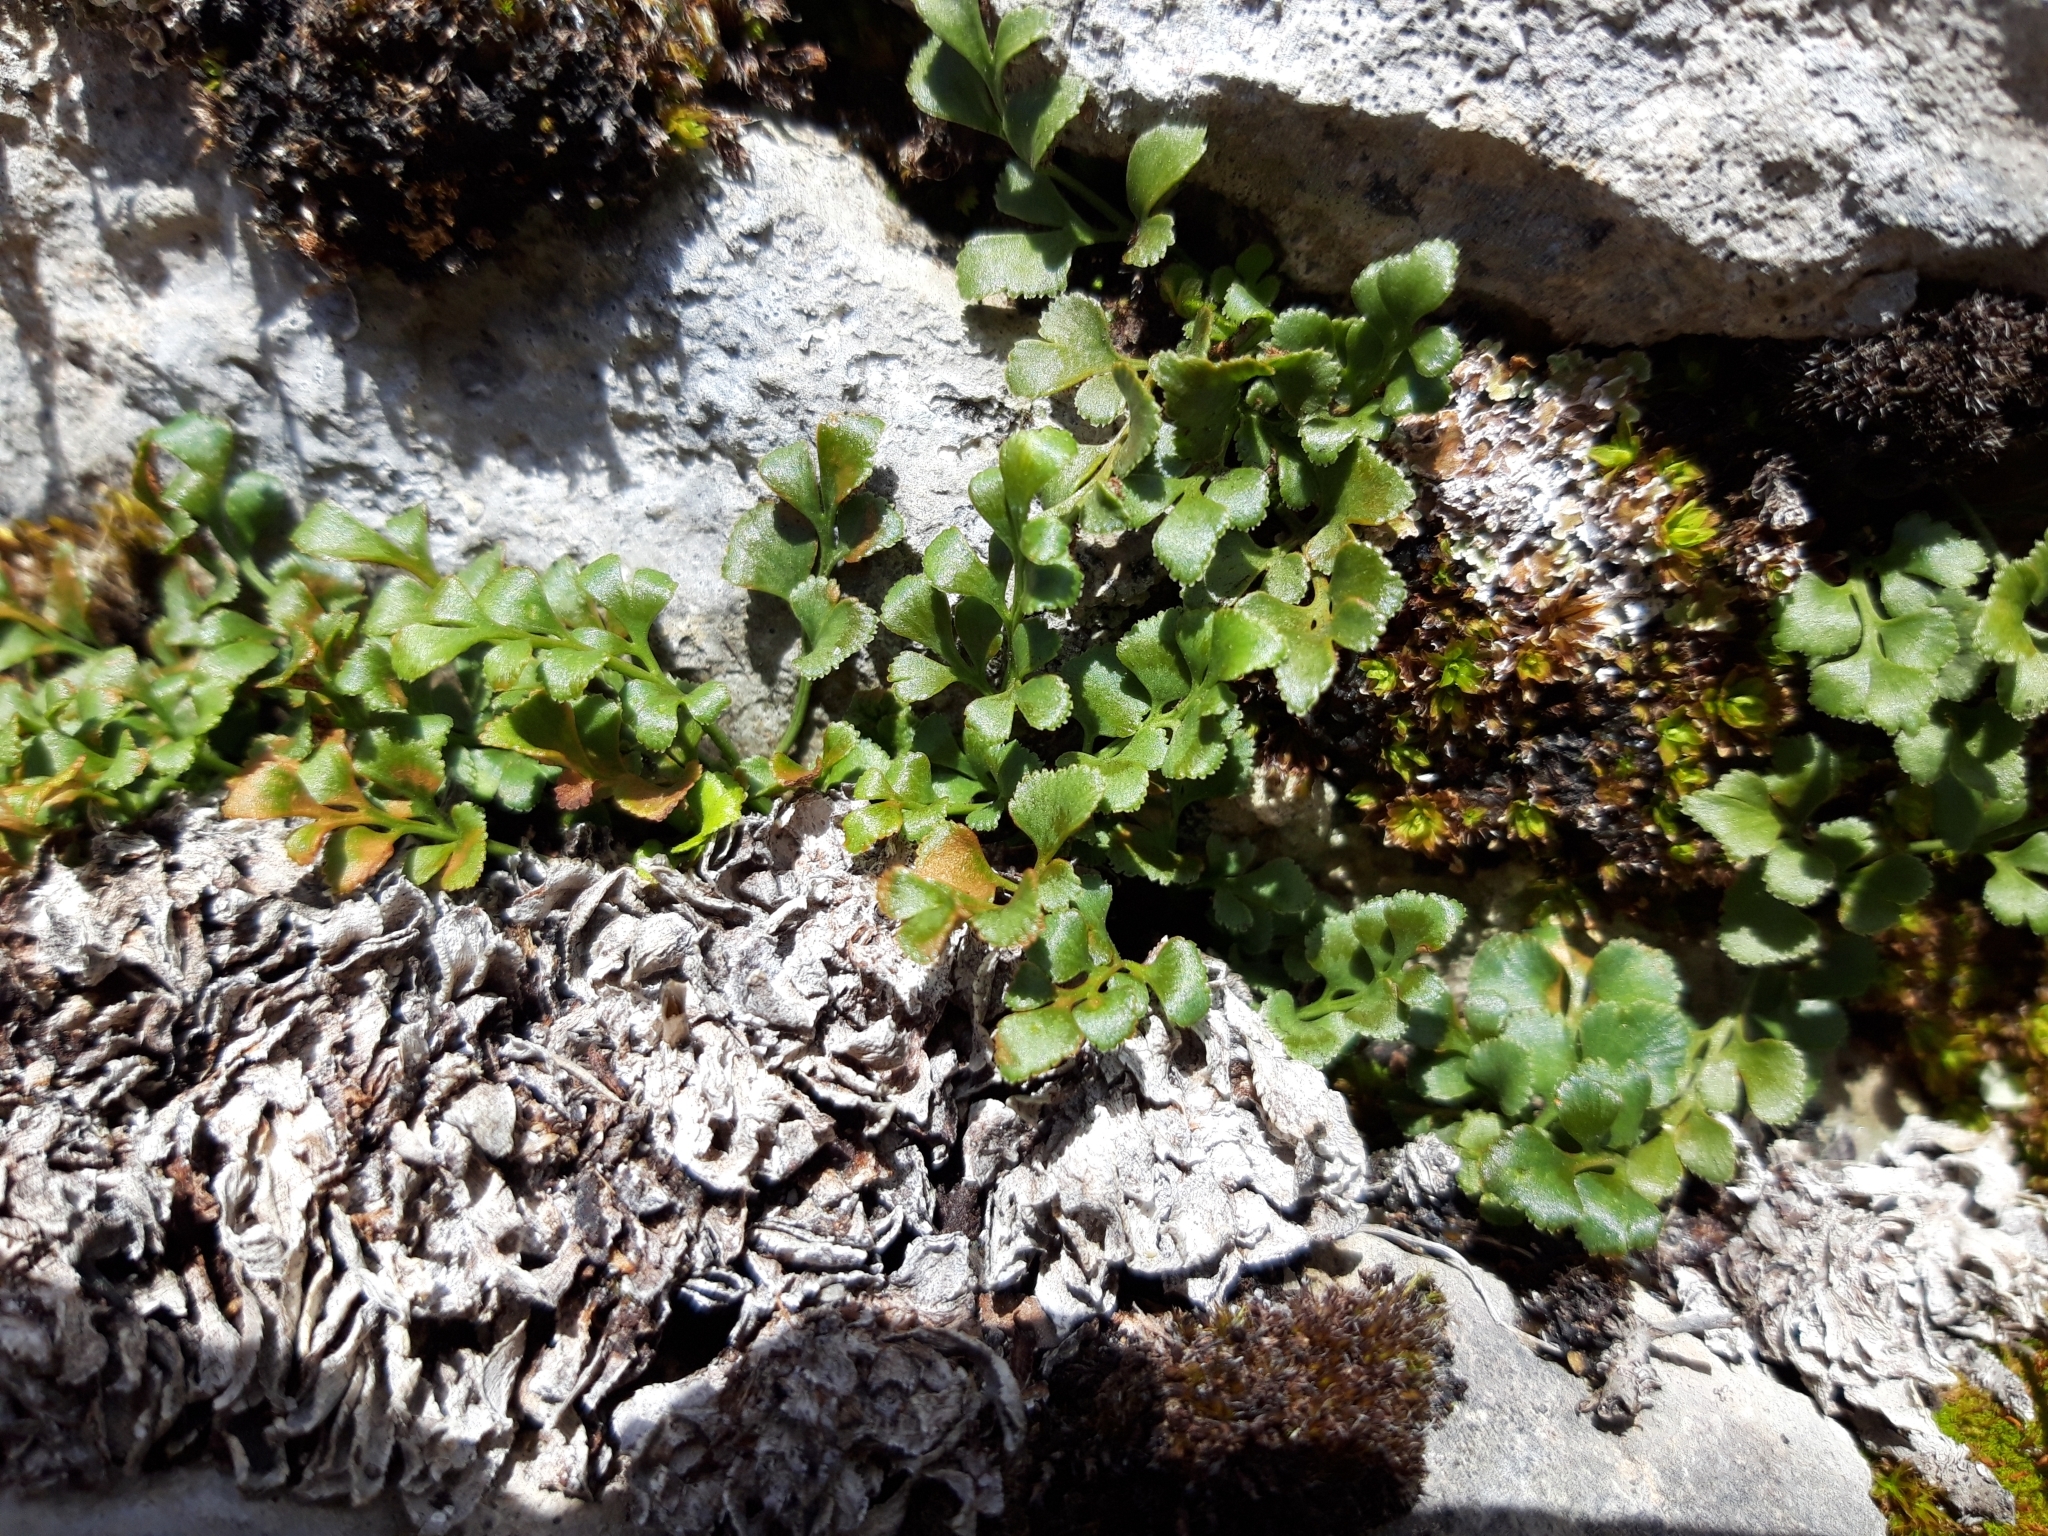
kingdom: Plantae
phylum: Tracheophyta
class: Polypodiopsida
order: Polypodiales
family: Aspleniaceae
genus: Asplenium
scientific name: Asplenium ruta-muraria
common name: Wall-rue
